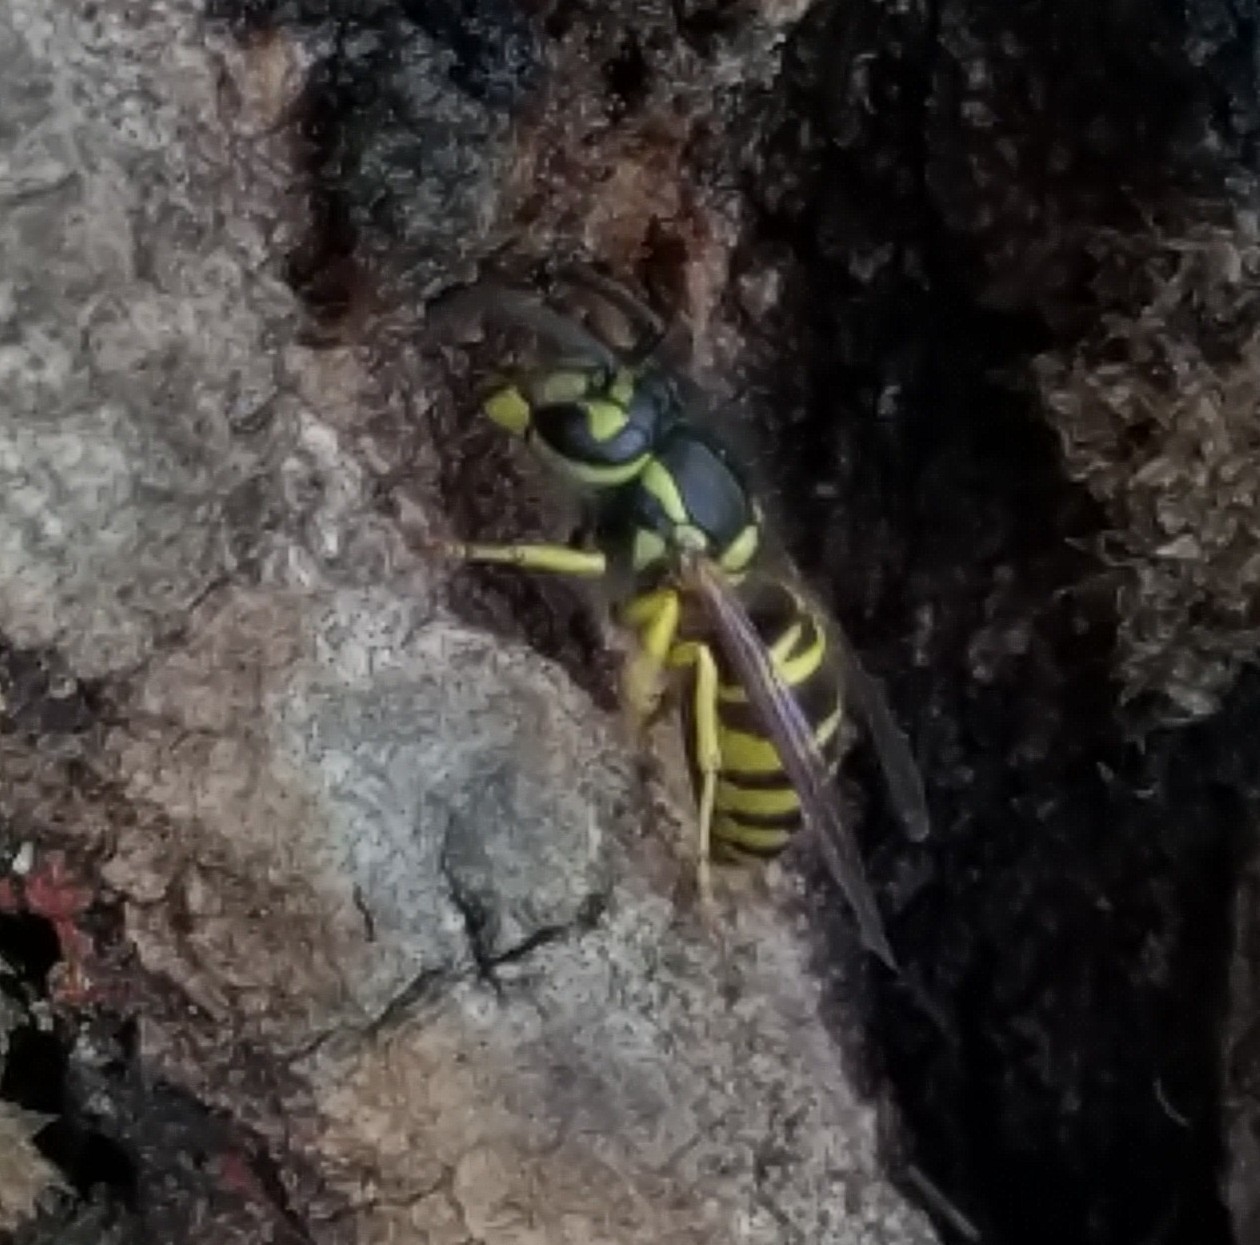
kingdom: Animalia
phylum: Arthropoda
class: Insecta
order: Hymenoptera
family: Vespidae
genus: Vespula
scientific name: Vespula maculifrons
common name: Eastern yellowjacket
